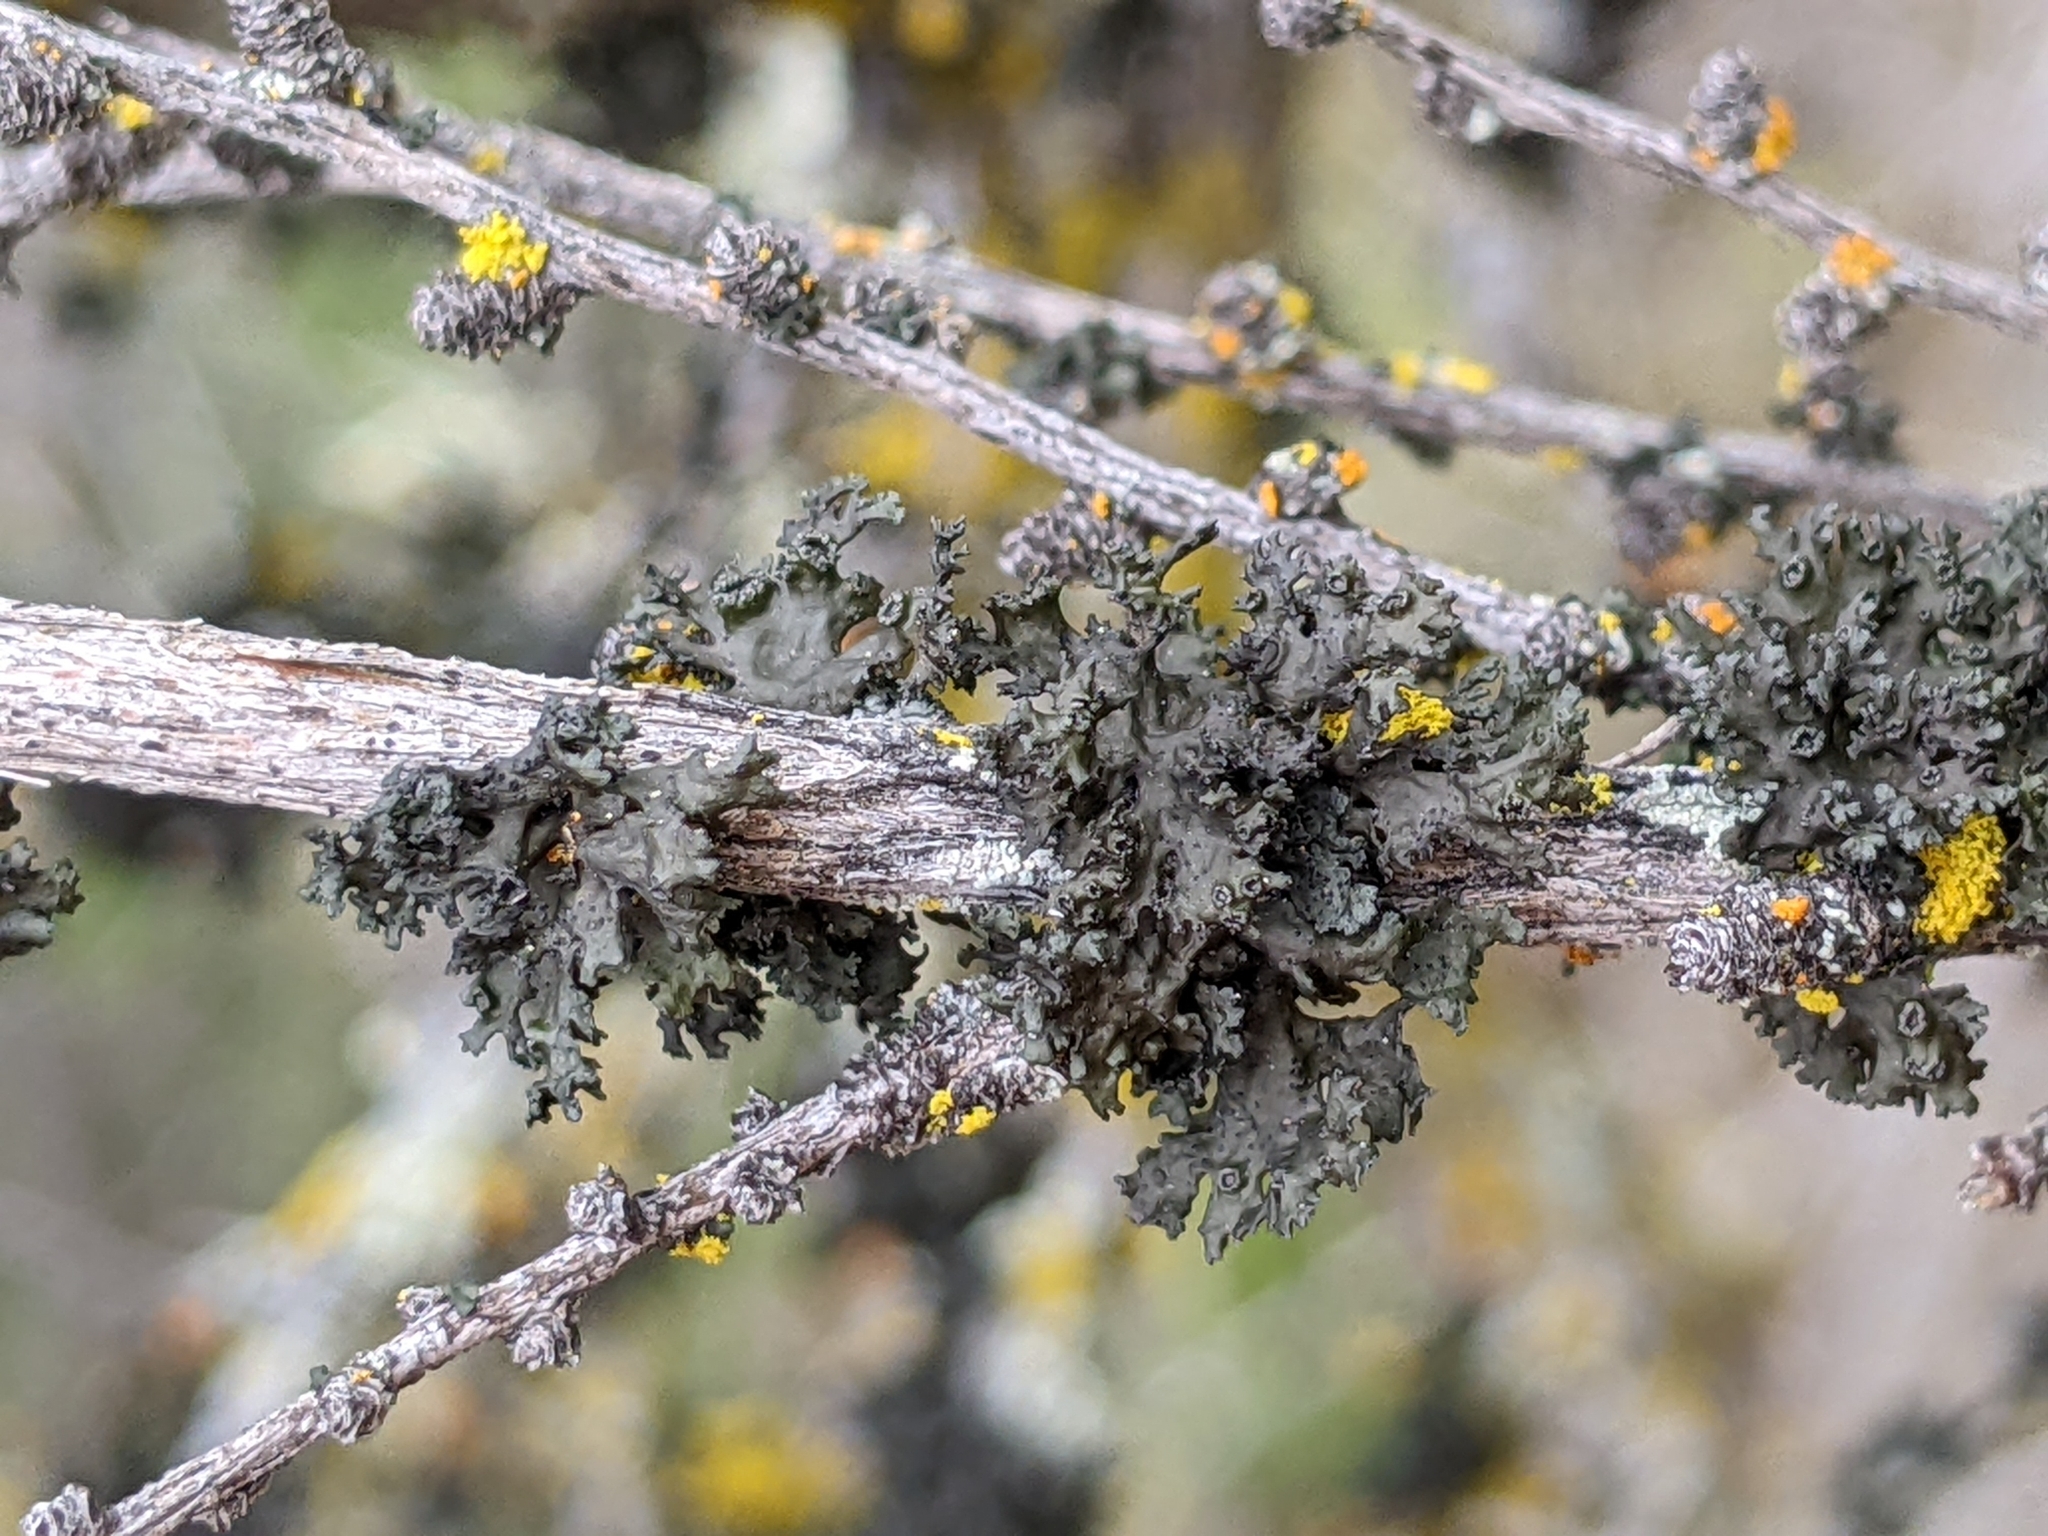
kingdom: Fungi
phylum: Ascomycota
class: Lecanoromycetes
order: Lecanorales
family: Parmeliaceae
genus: Nephromopsis
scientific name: Nephromopsis merrillii
